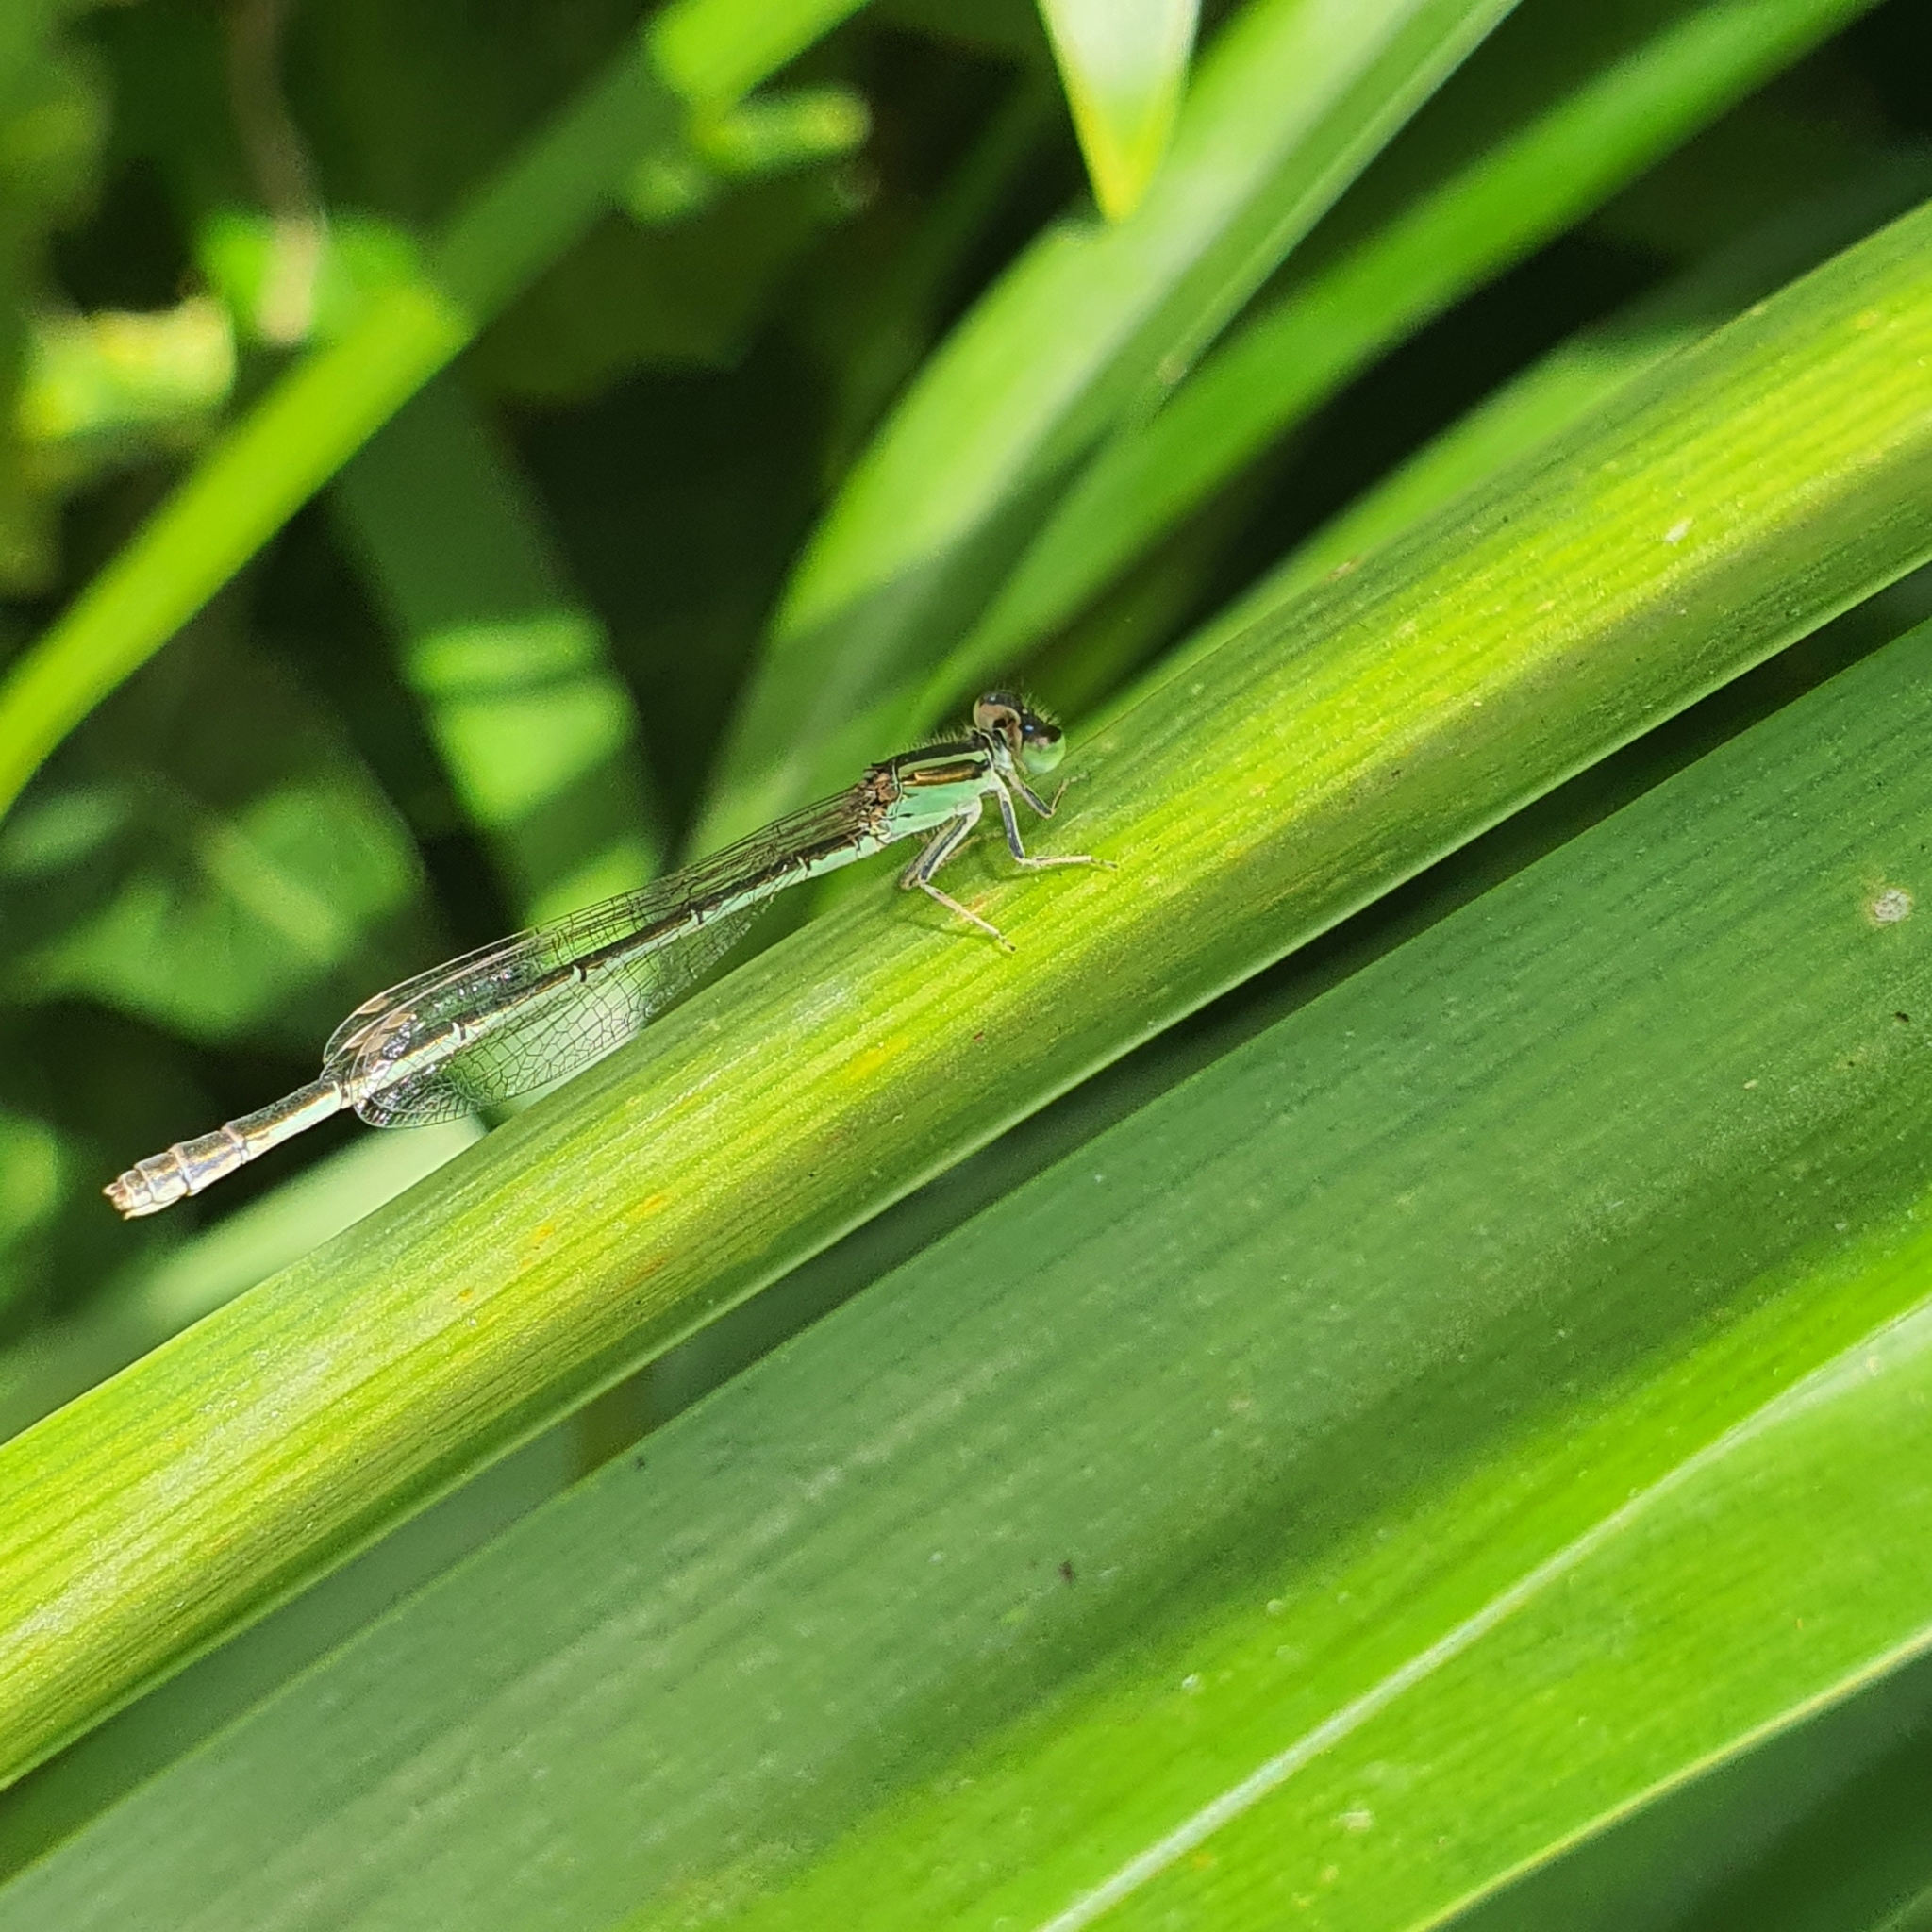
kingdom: Animalia
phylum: Arthropoda
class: Insecta
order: Odonata
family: Coenagrionidae
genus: Ischnura
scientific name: Ischnura aurora
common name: Gossamer damselfly
